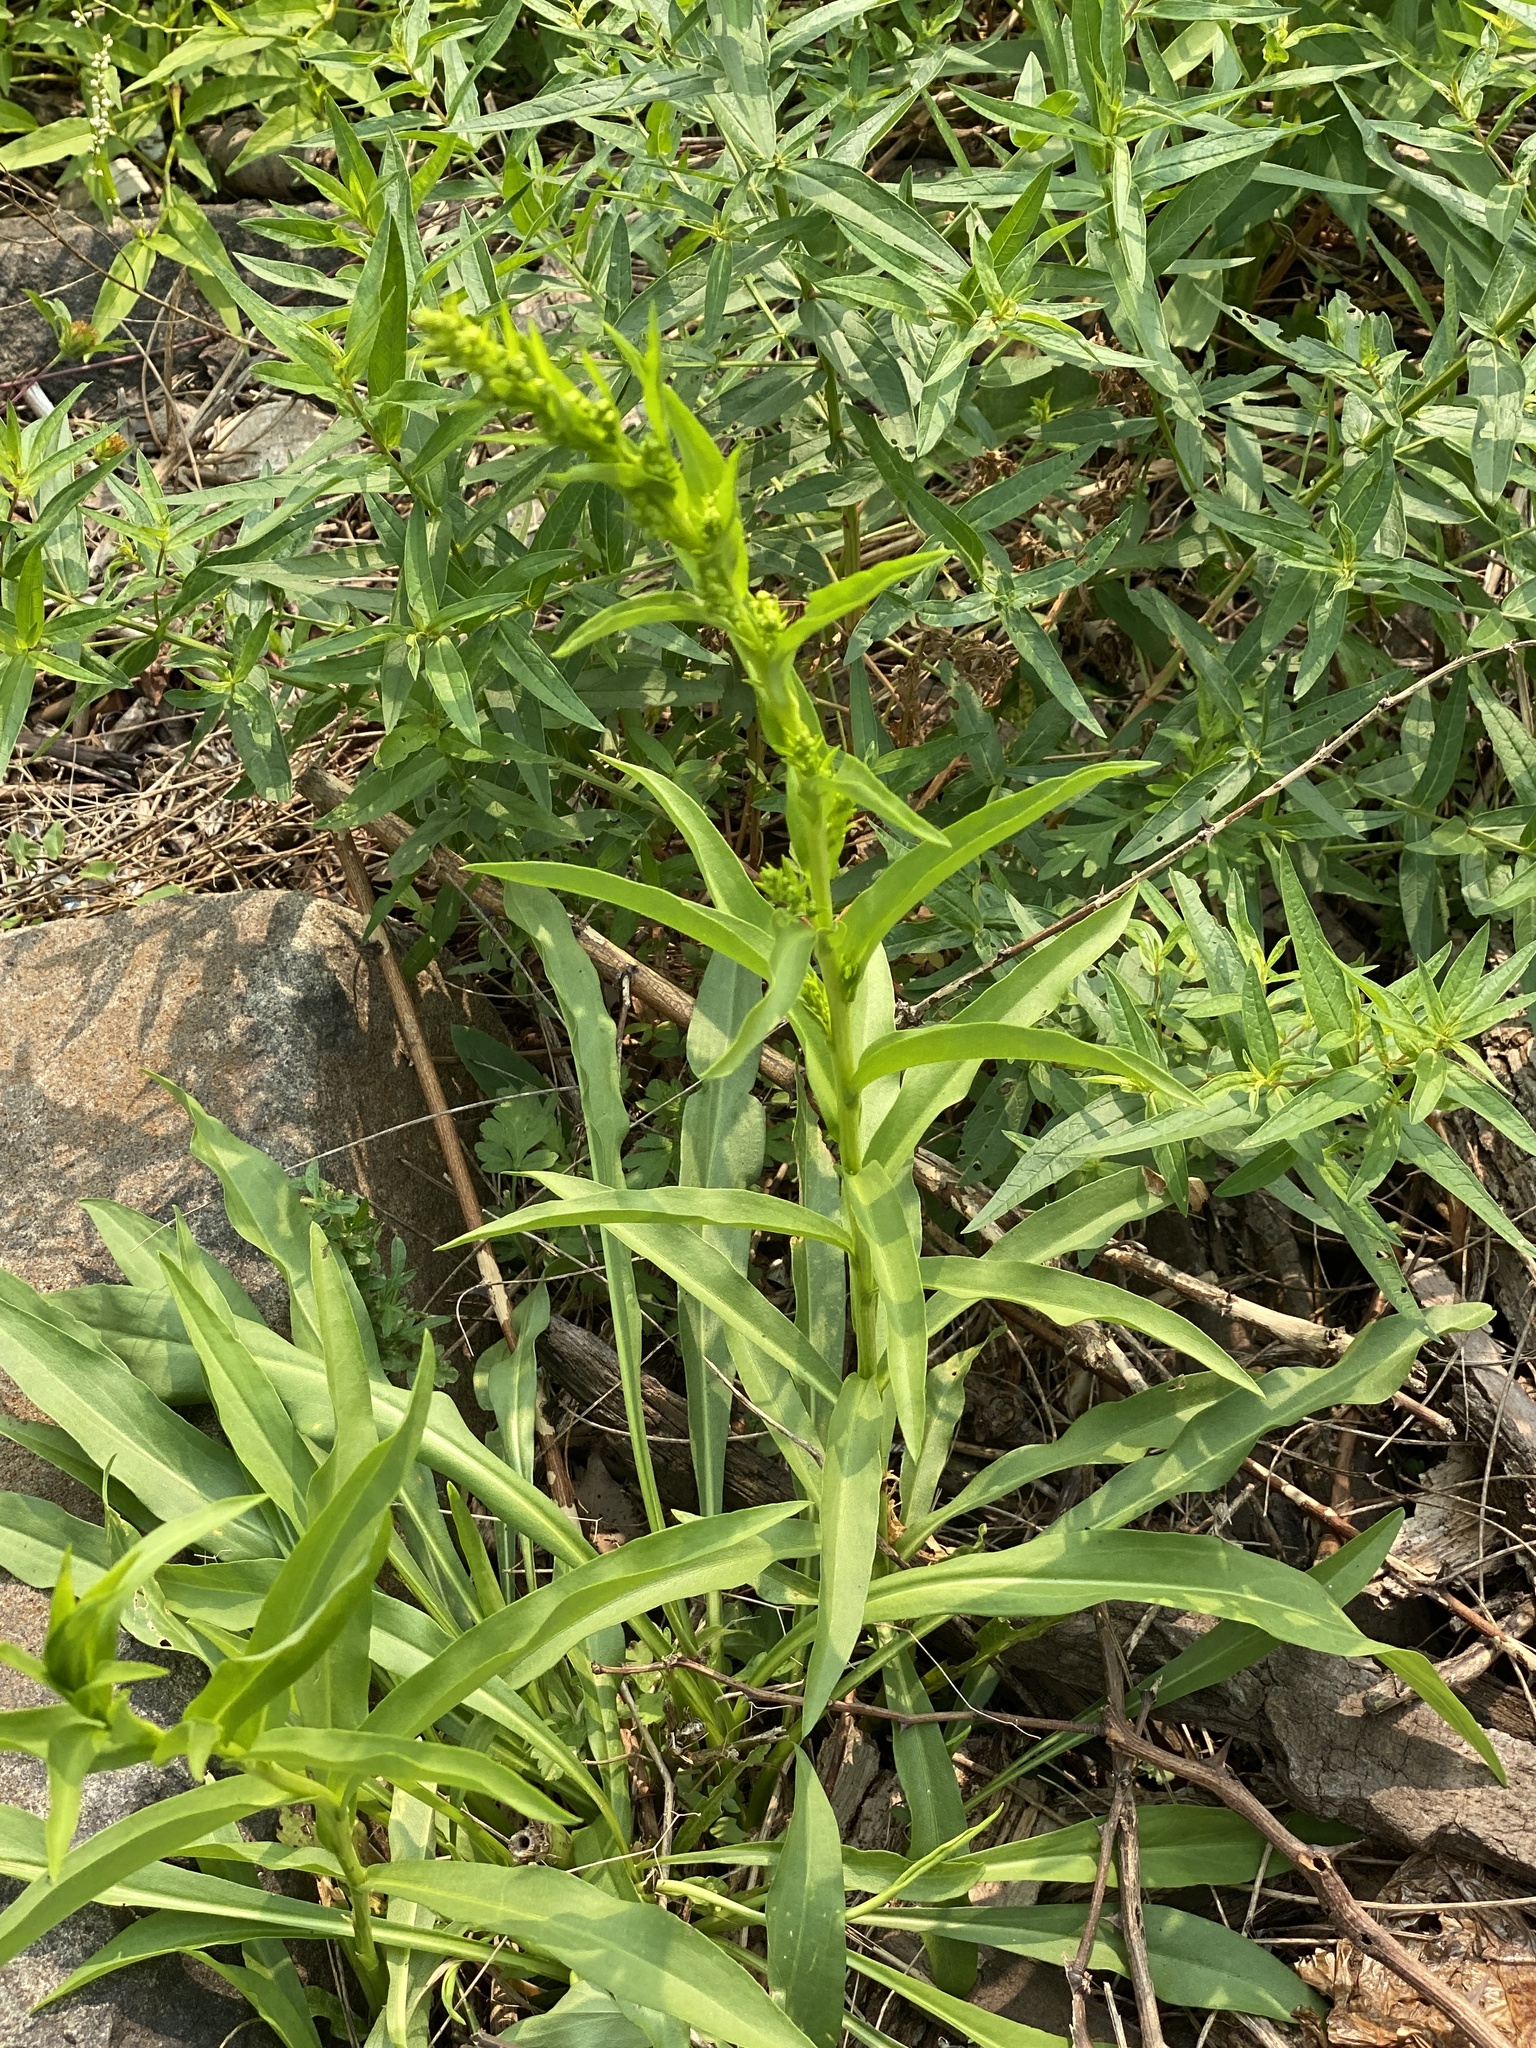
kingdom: Plantae
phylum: Tracheophyta
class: Magnoliopsida
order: Asterales
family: Asteraceae
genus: Solidago
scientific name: Solidago sempervirens
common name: Salt-marsh goldenrod
